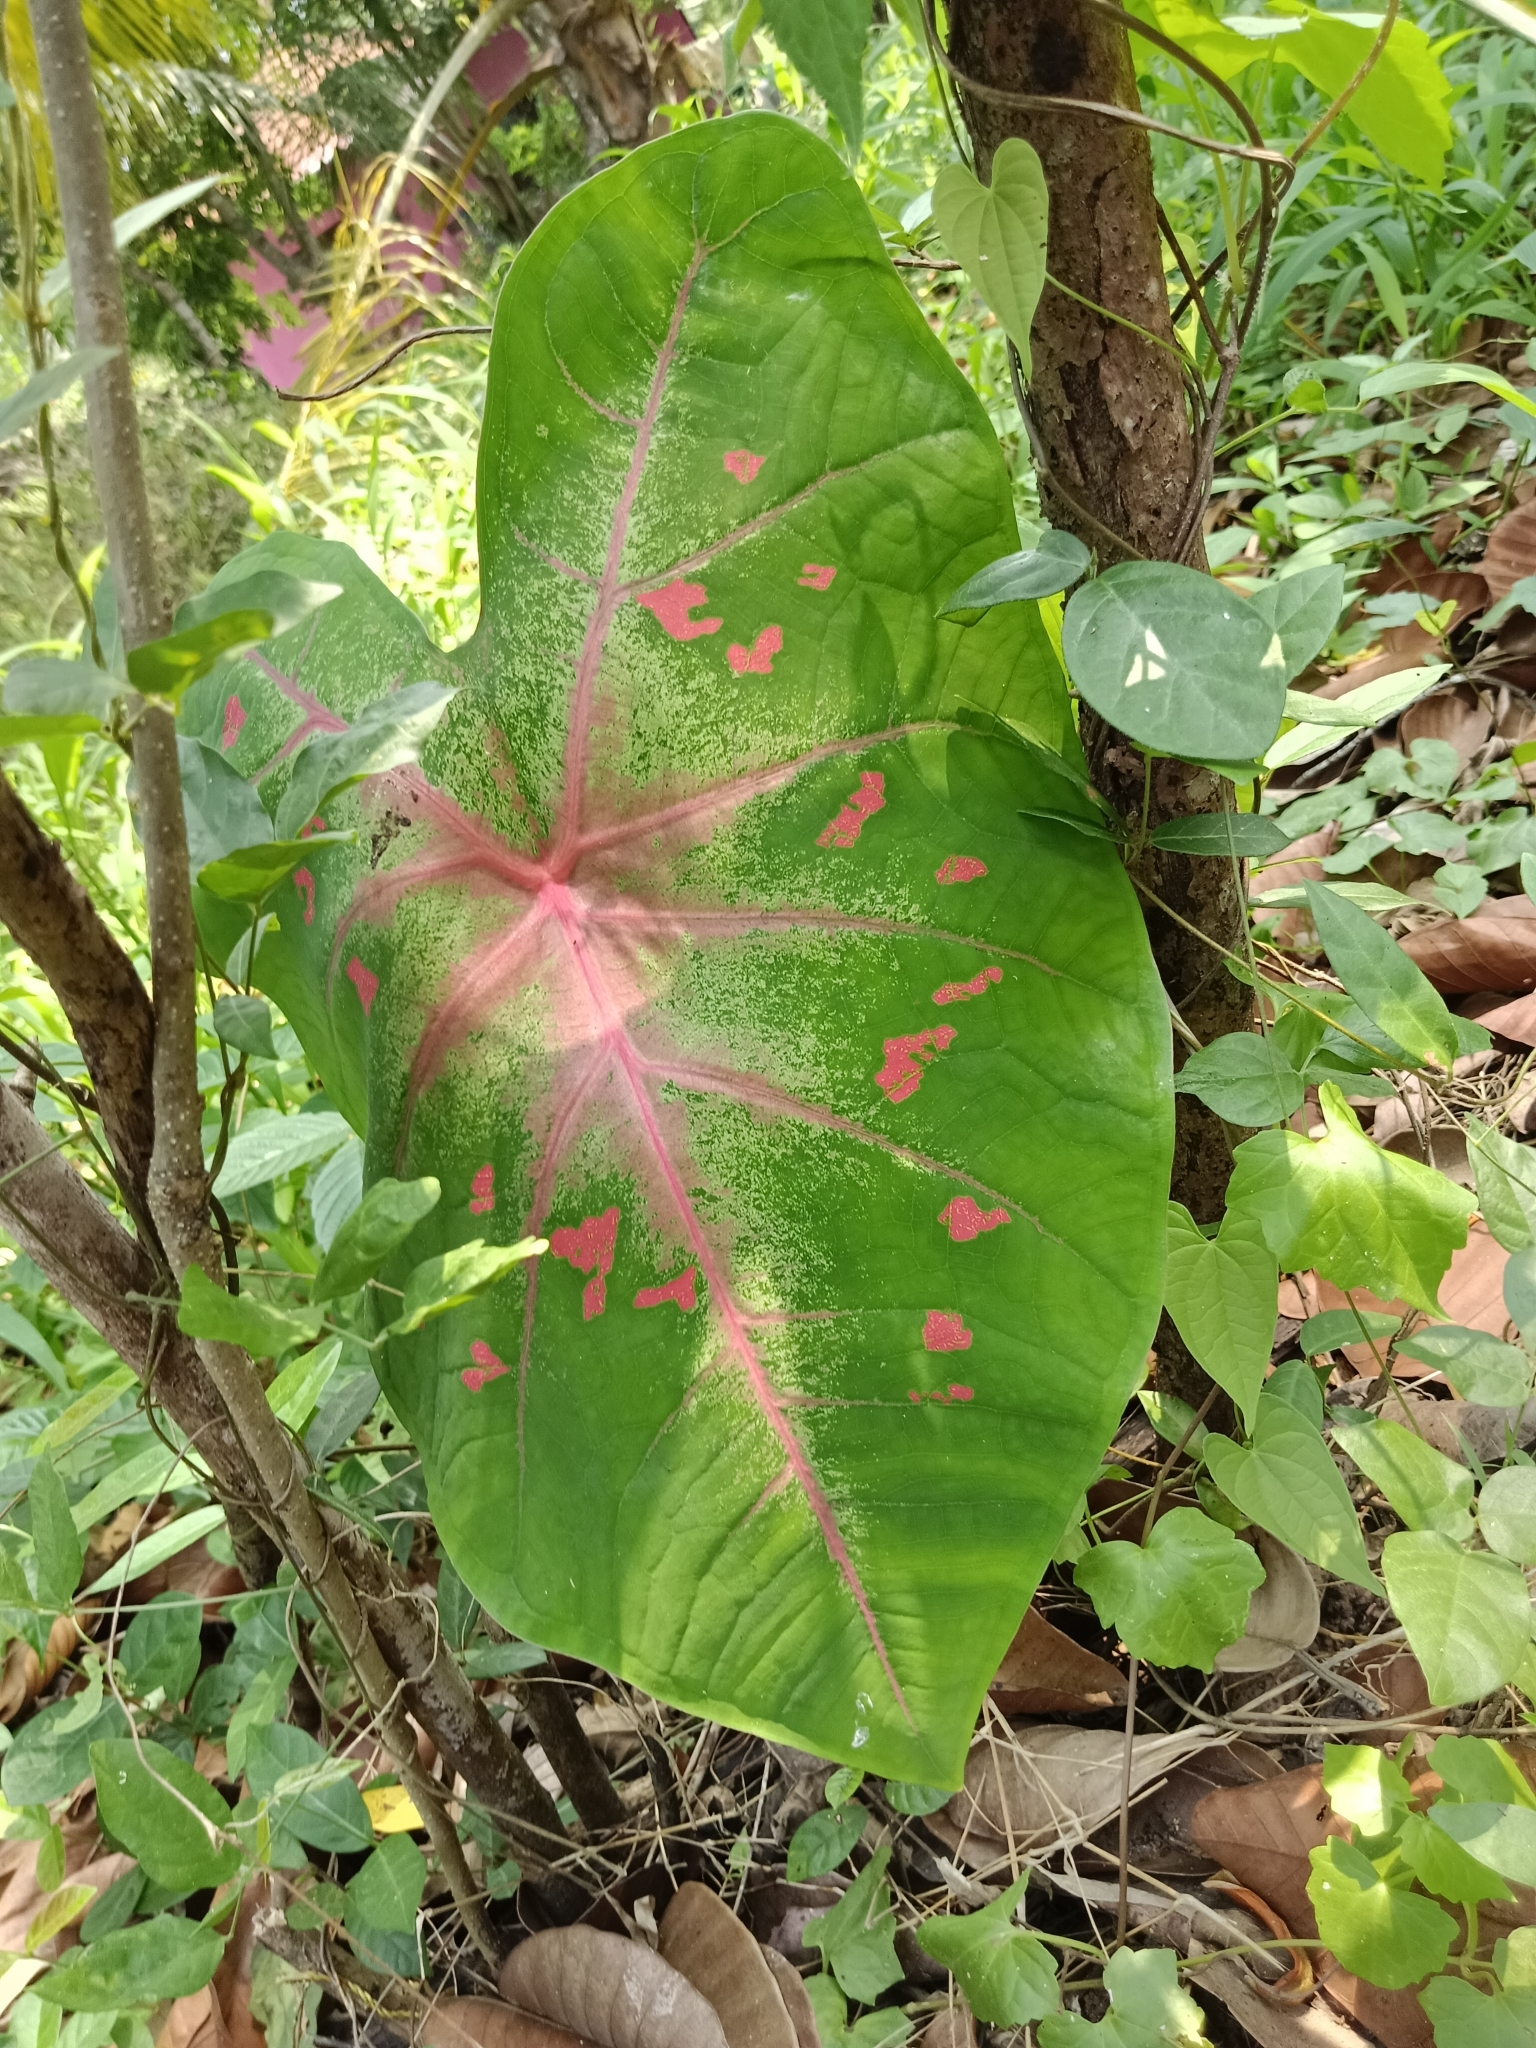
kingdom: Plantae
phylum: Tracheophyta
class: Liliopsida
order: Alismatales
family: Araceae
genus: Caladium
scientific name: Caladium bicolor
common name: Artist's pallet
